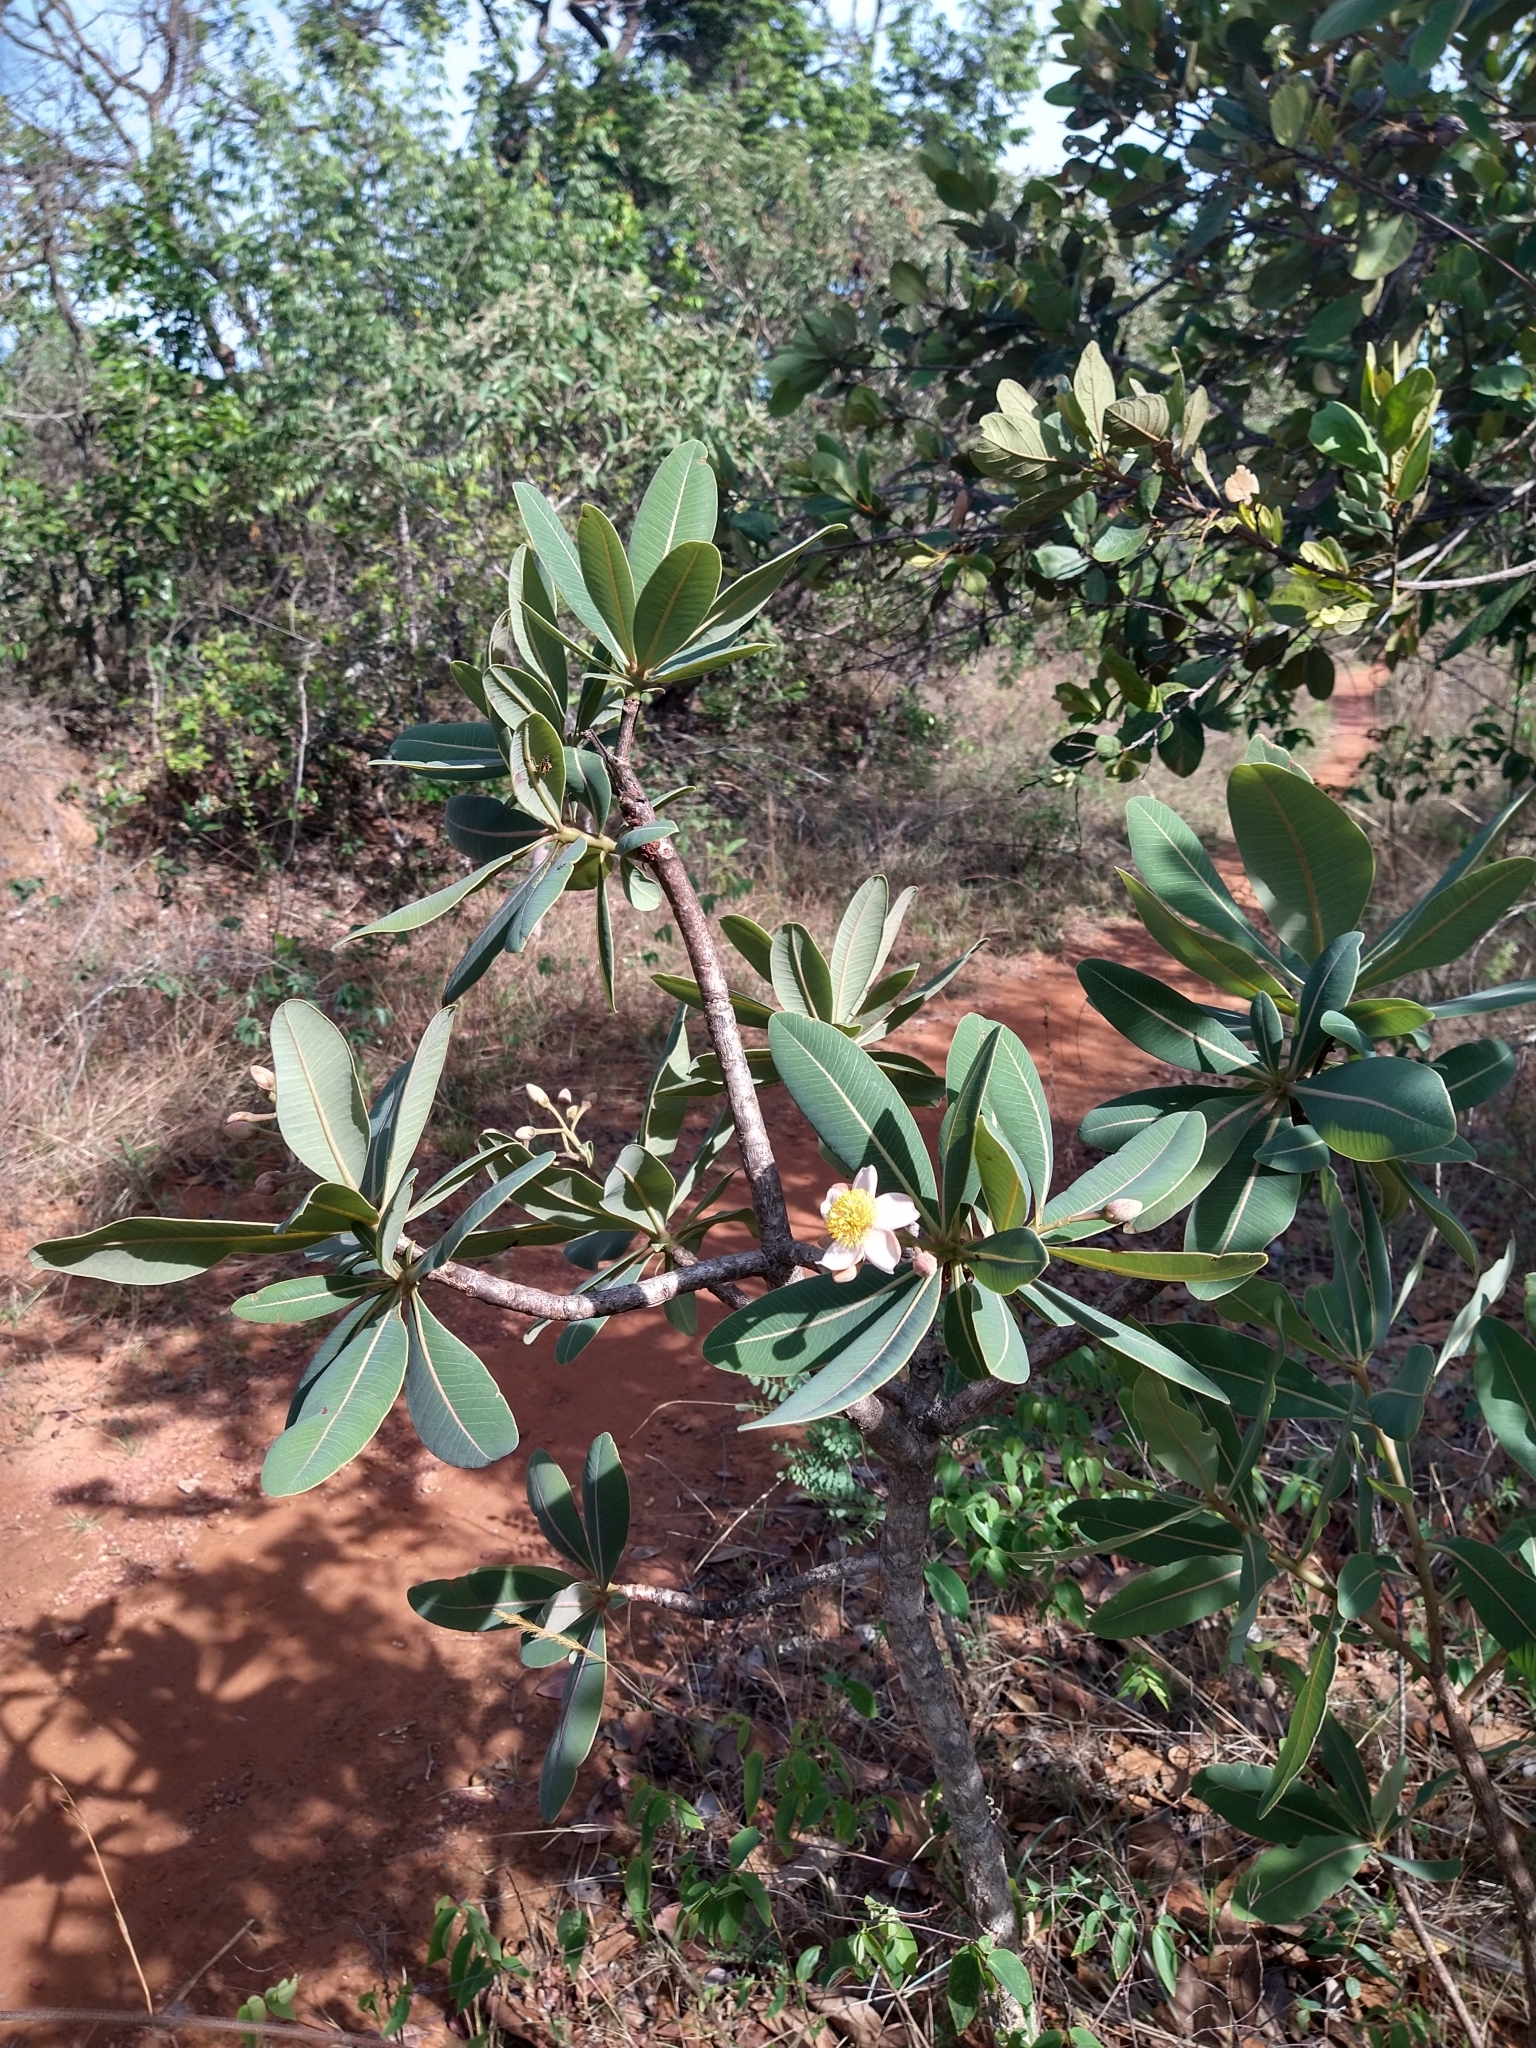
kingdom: Plantae
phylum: Tracheophyta
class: Magnoliopsida
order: Malpighiales
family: Calophyllaceae
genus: Kielmeyera
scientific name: Kielmeyera coriacea
